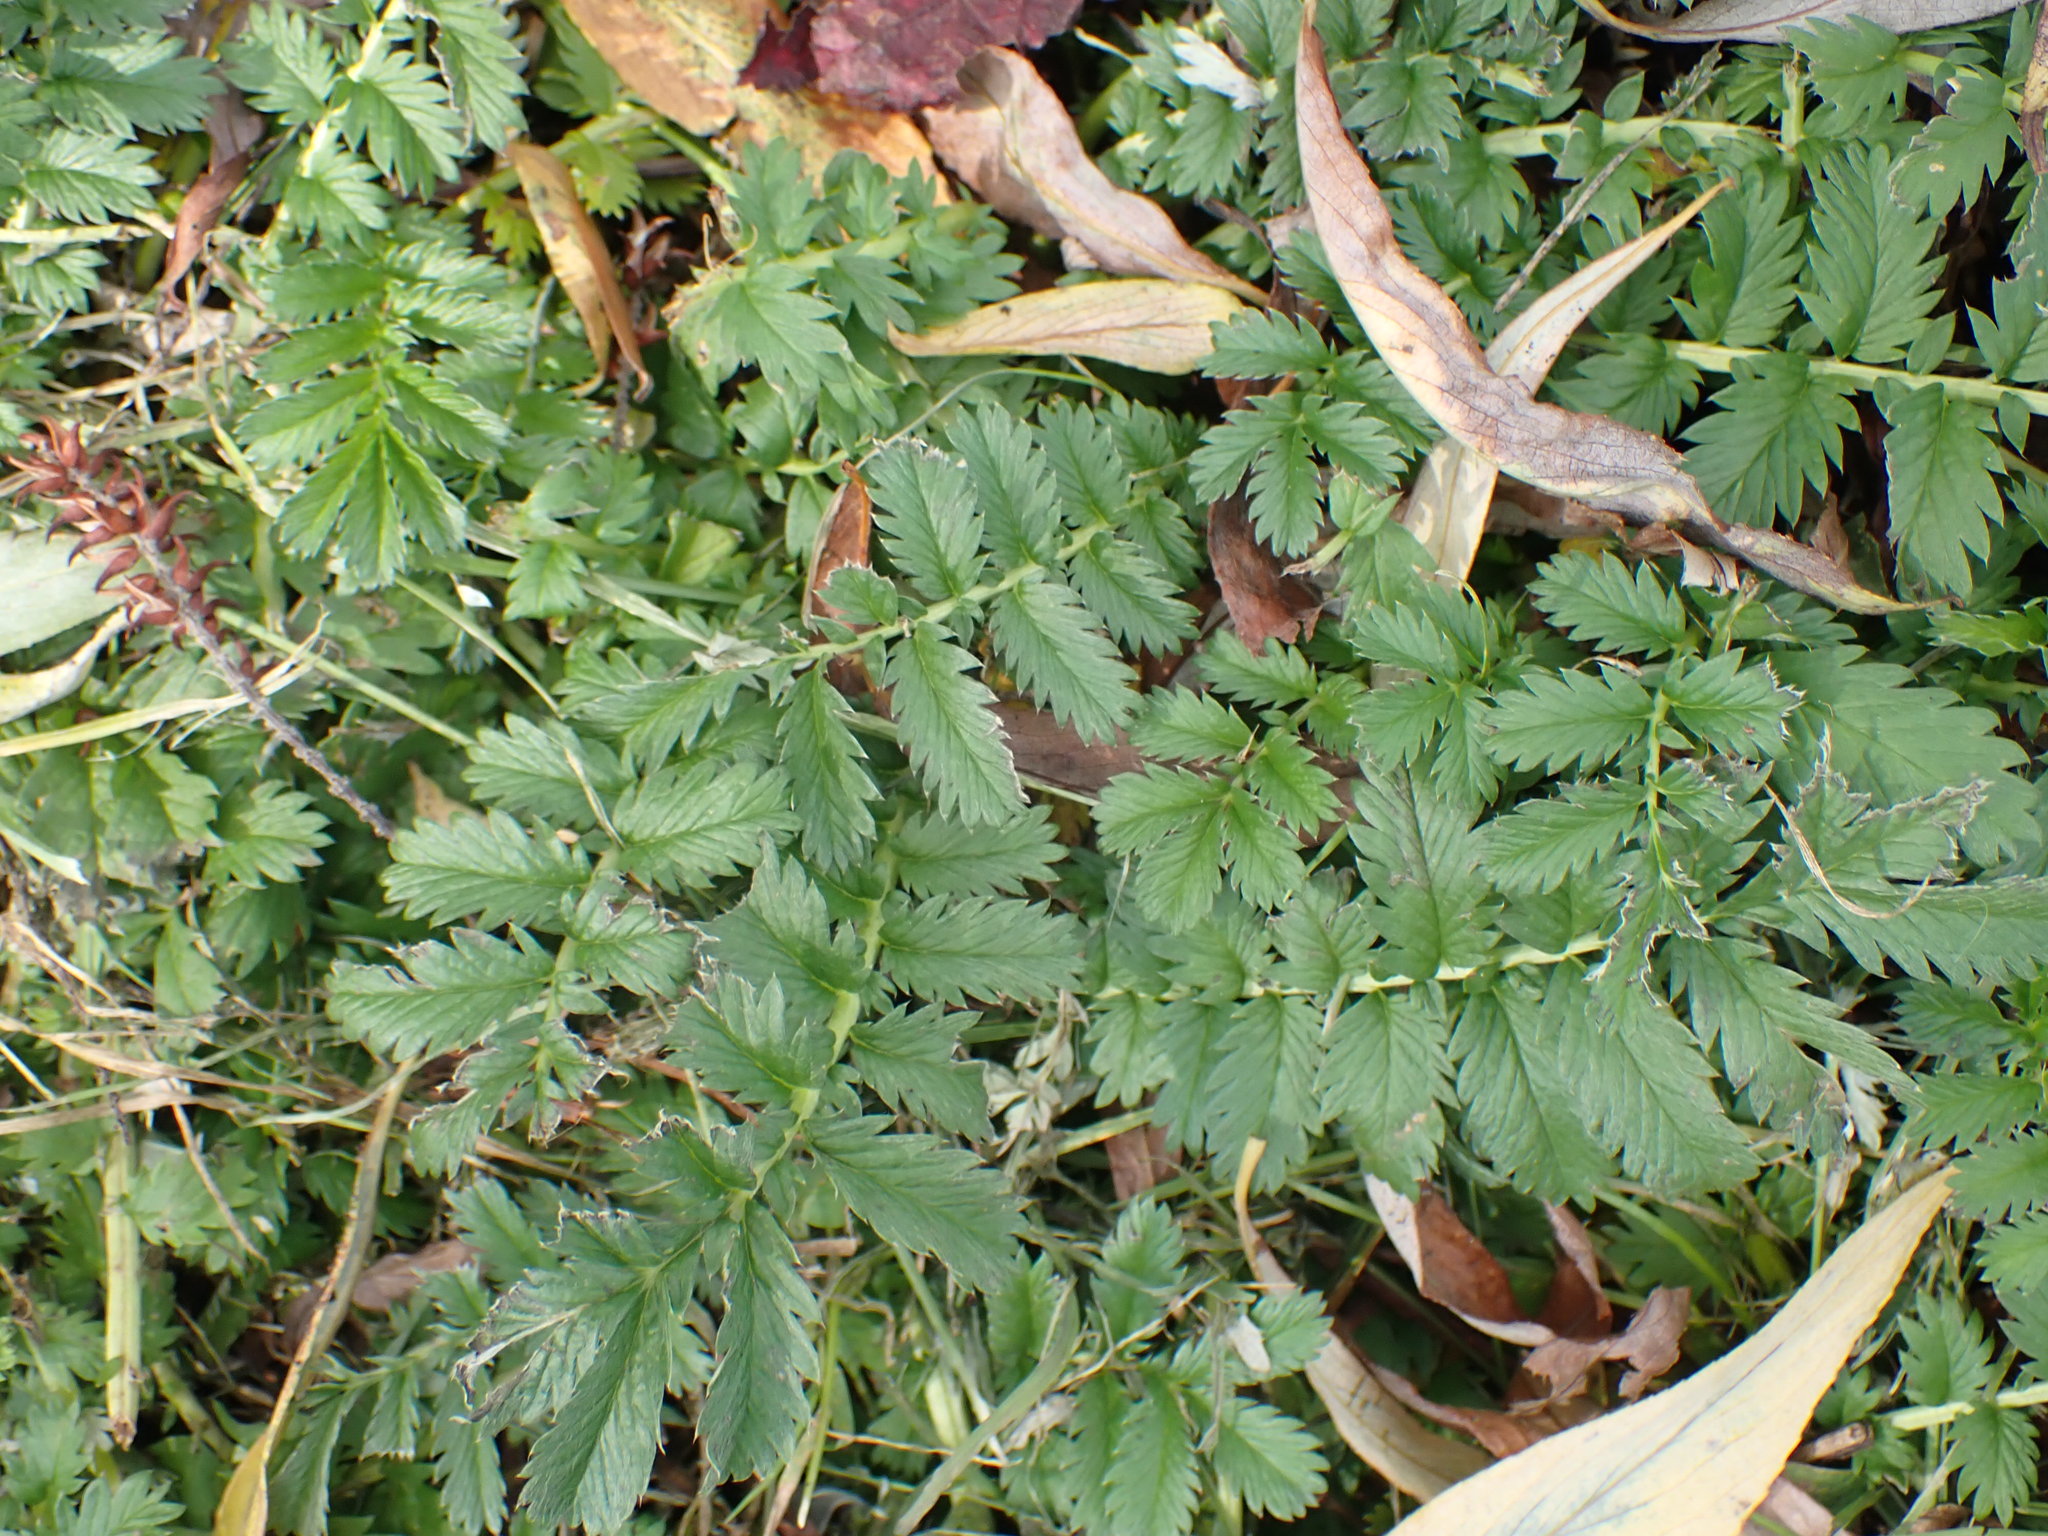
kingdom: Plantae
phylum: Tracheophyta
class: Magnoliopsida
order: Rosales
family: Rosaceae
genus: Argentina
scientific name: Argentina anserina
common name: Common silverweed
